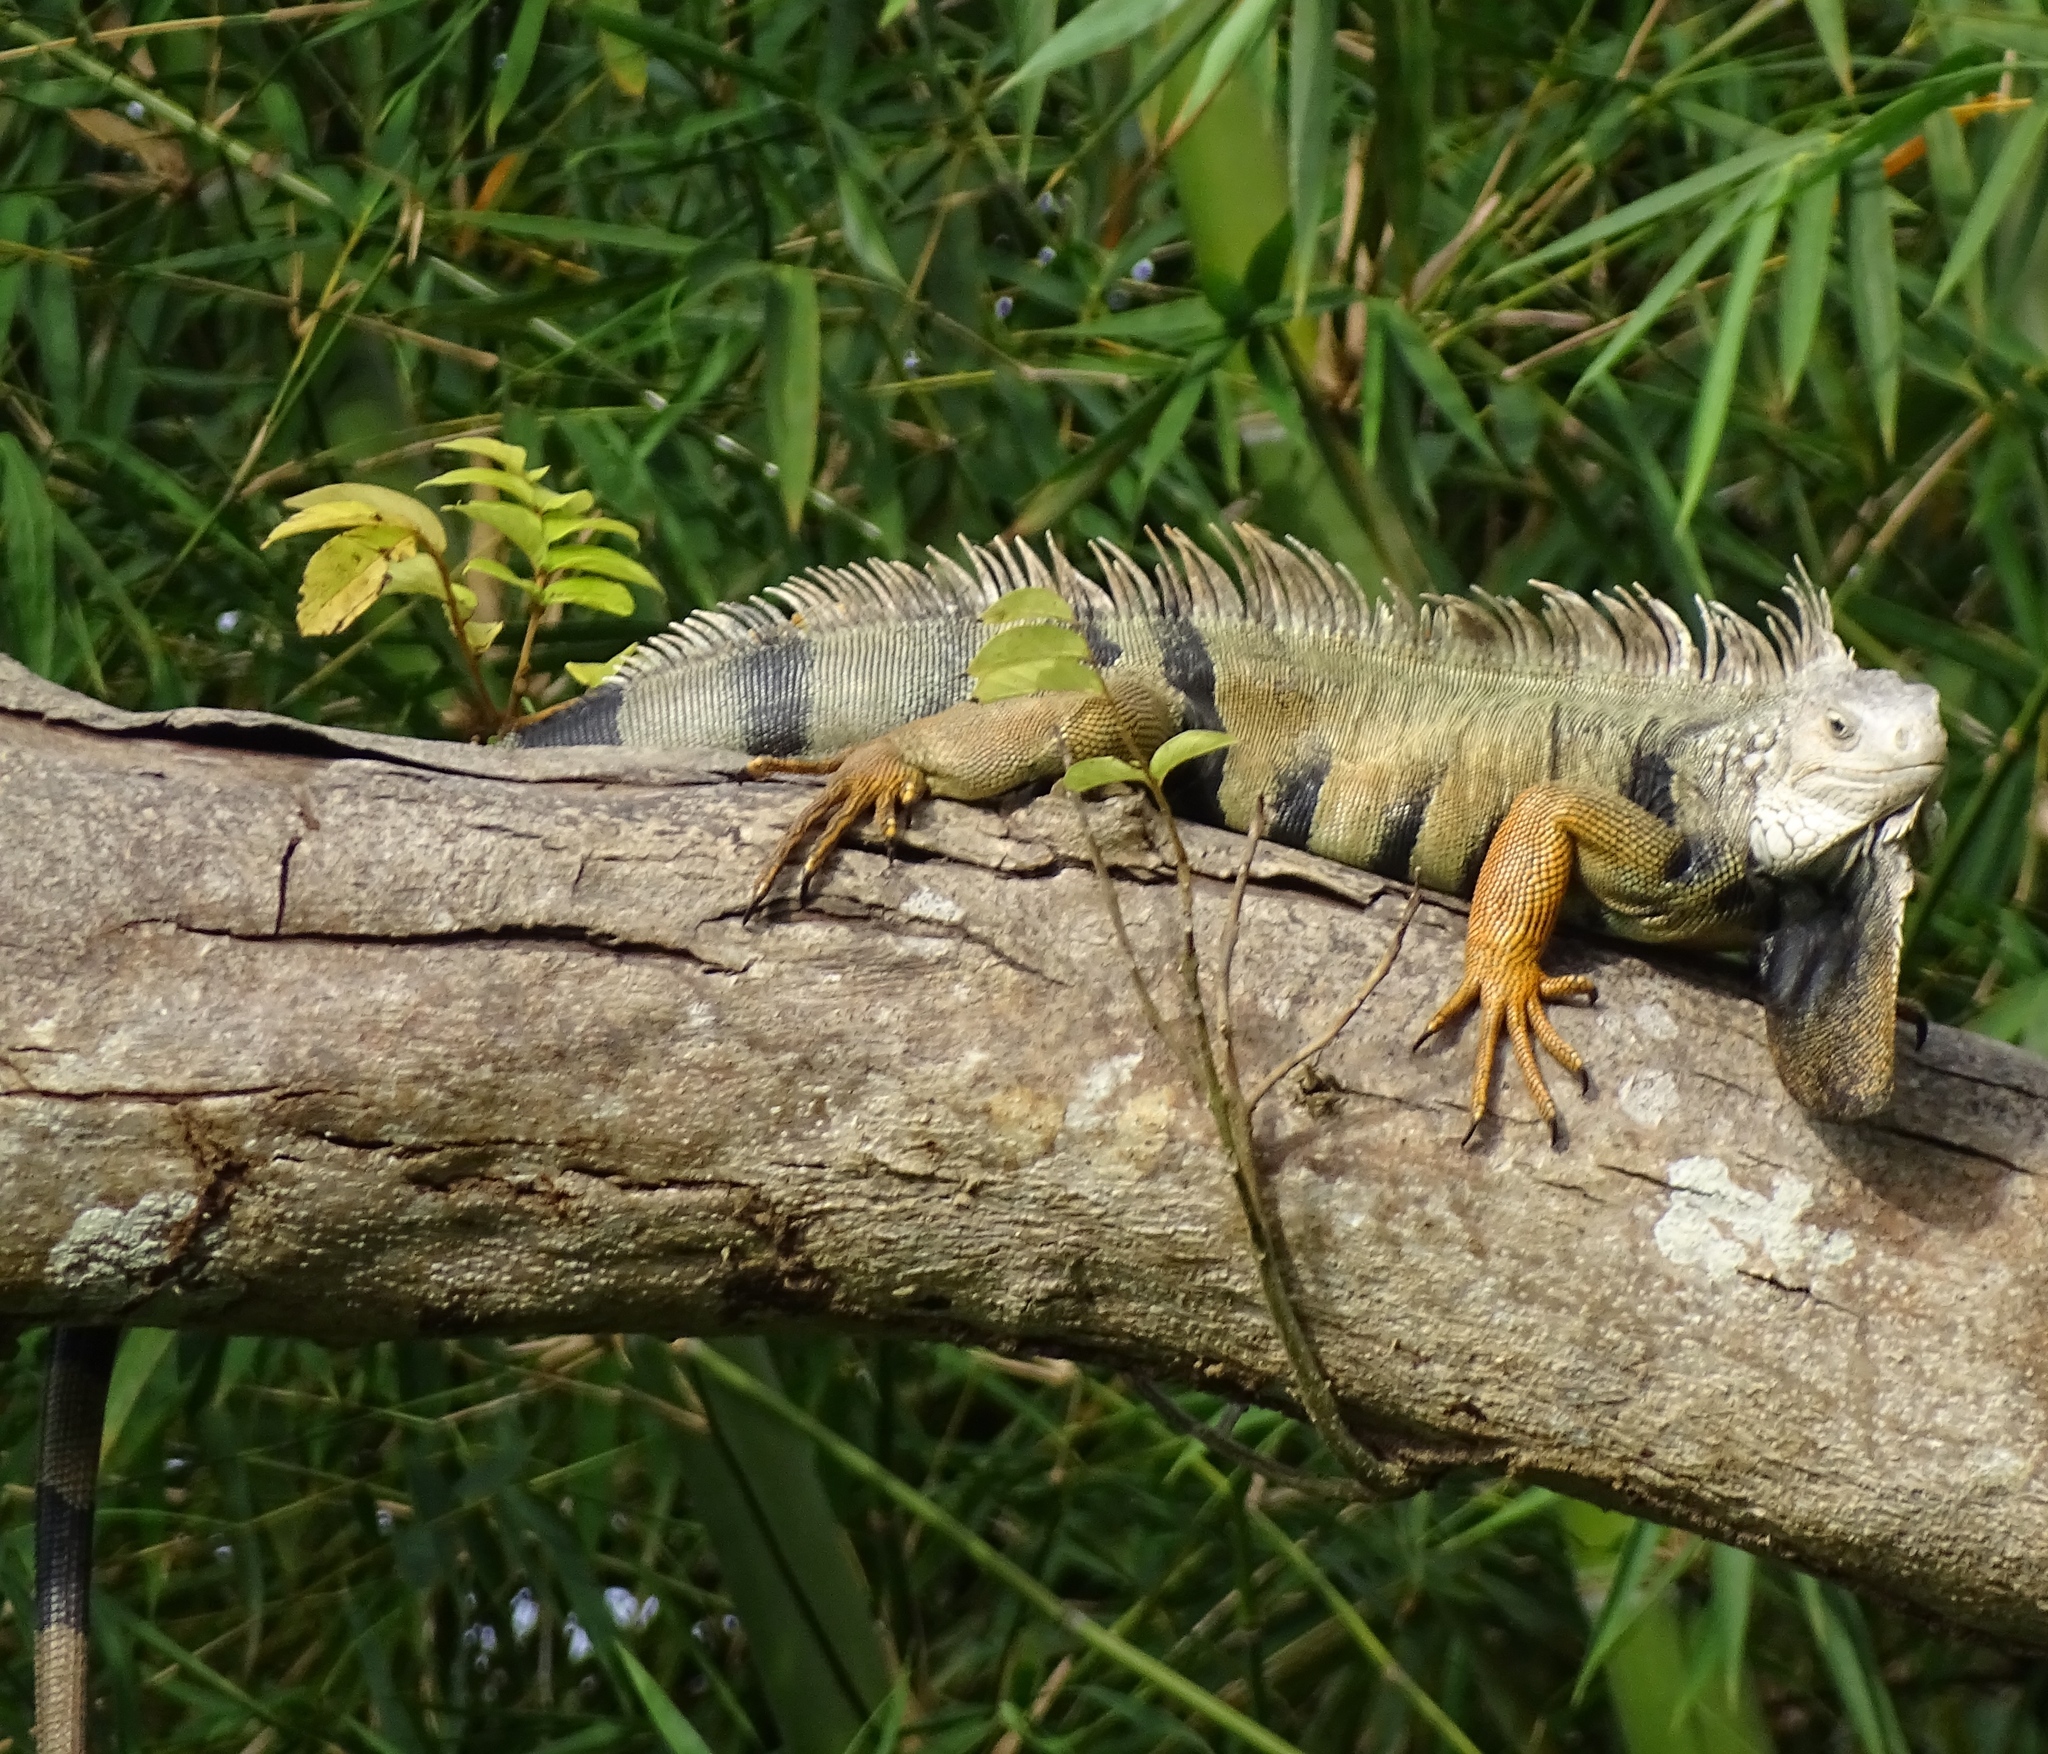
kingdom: Animalia
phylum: Chordata
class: Squamata
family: Iguanidae
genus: Iguana
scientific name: Iguana iguana
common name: Green iguana
